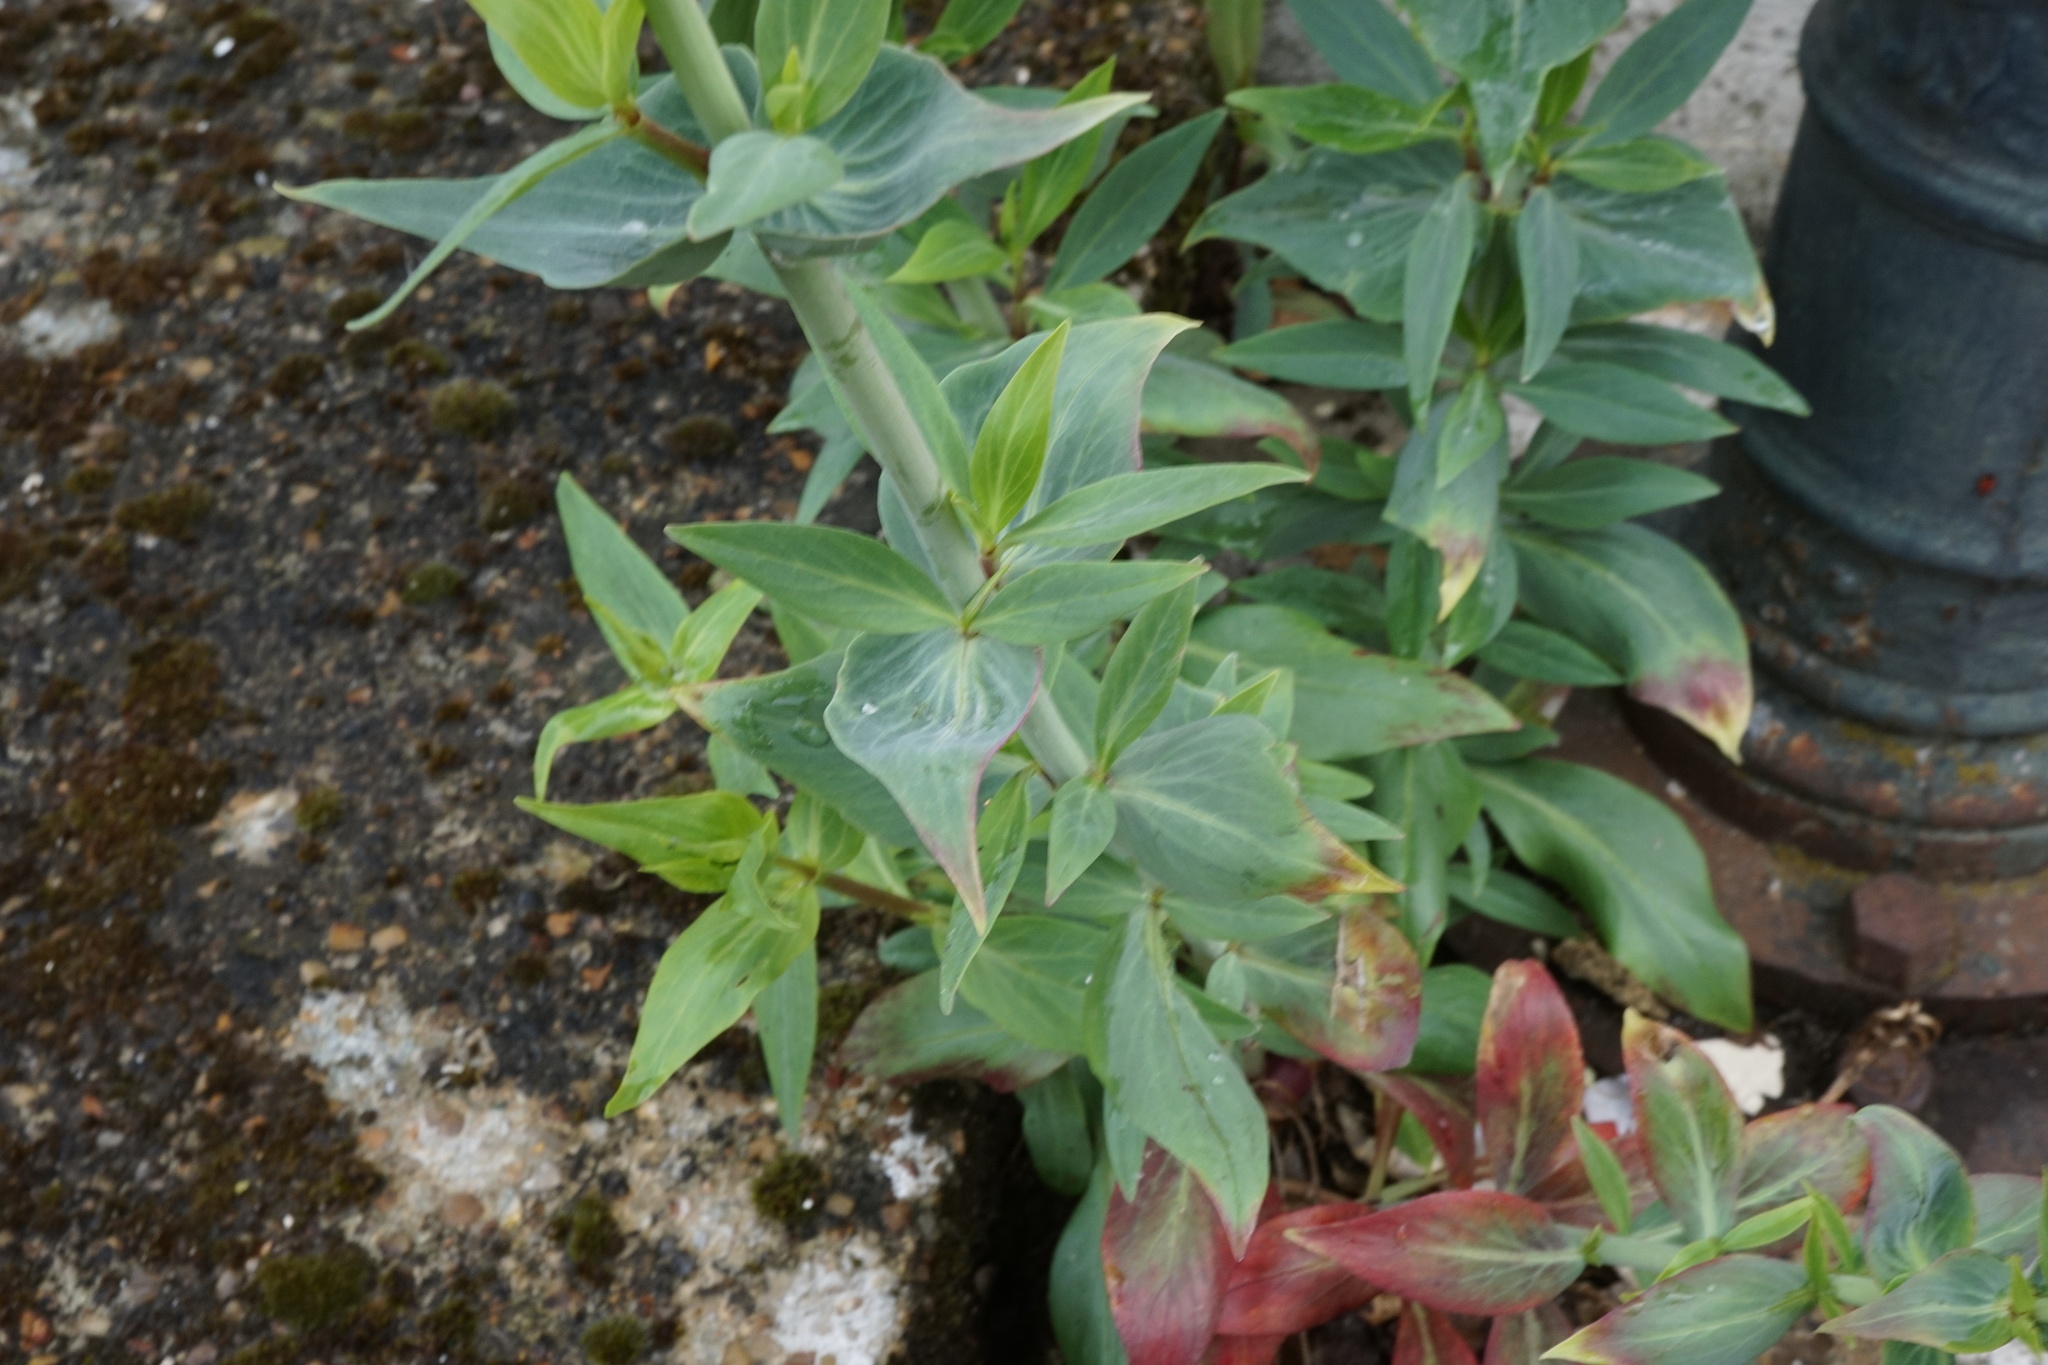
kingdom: Plantae
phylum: Tracheophyta
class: Magnoliopsida
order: Dipsacales
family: Caprifoliaceae
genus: Centranthus
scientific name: Centranthus ruber
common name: Red valerian
